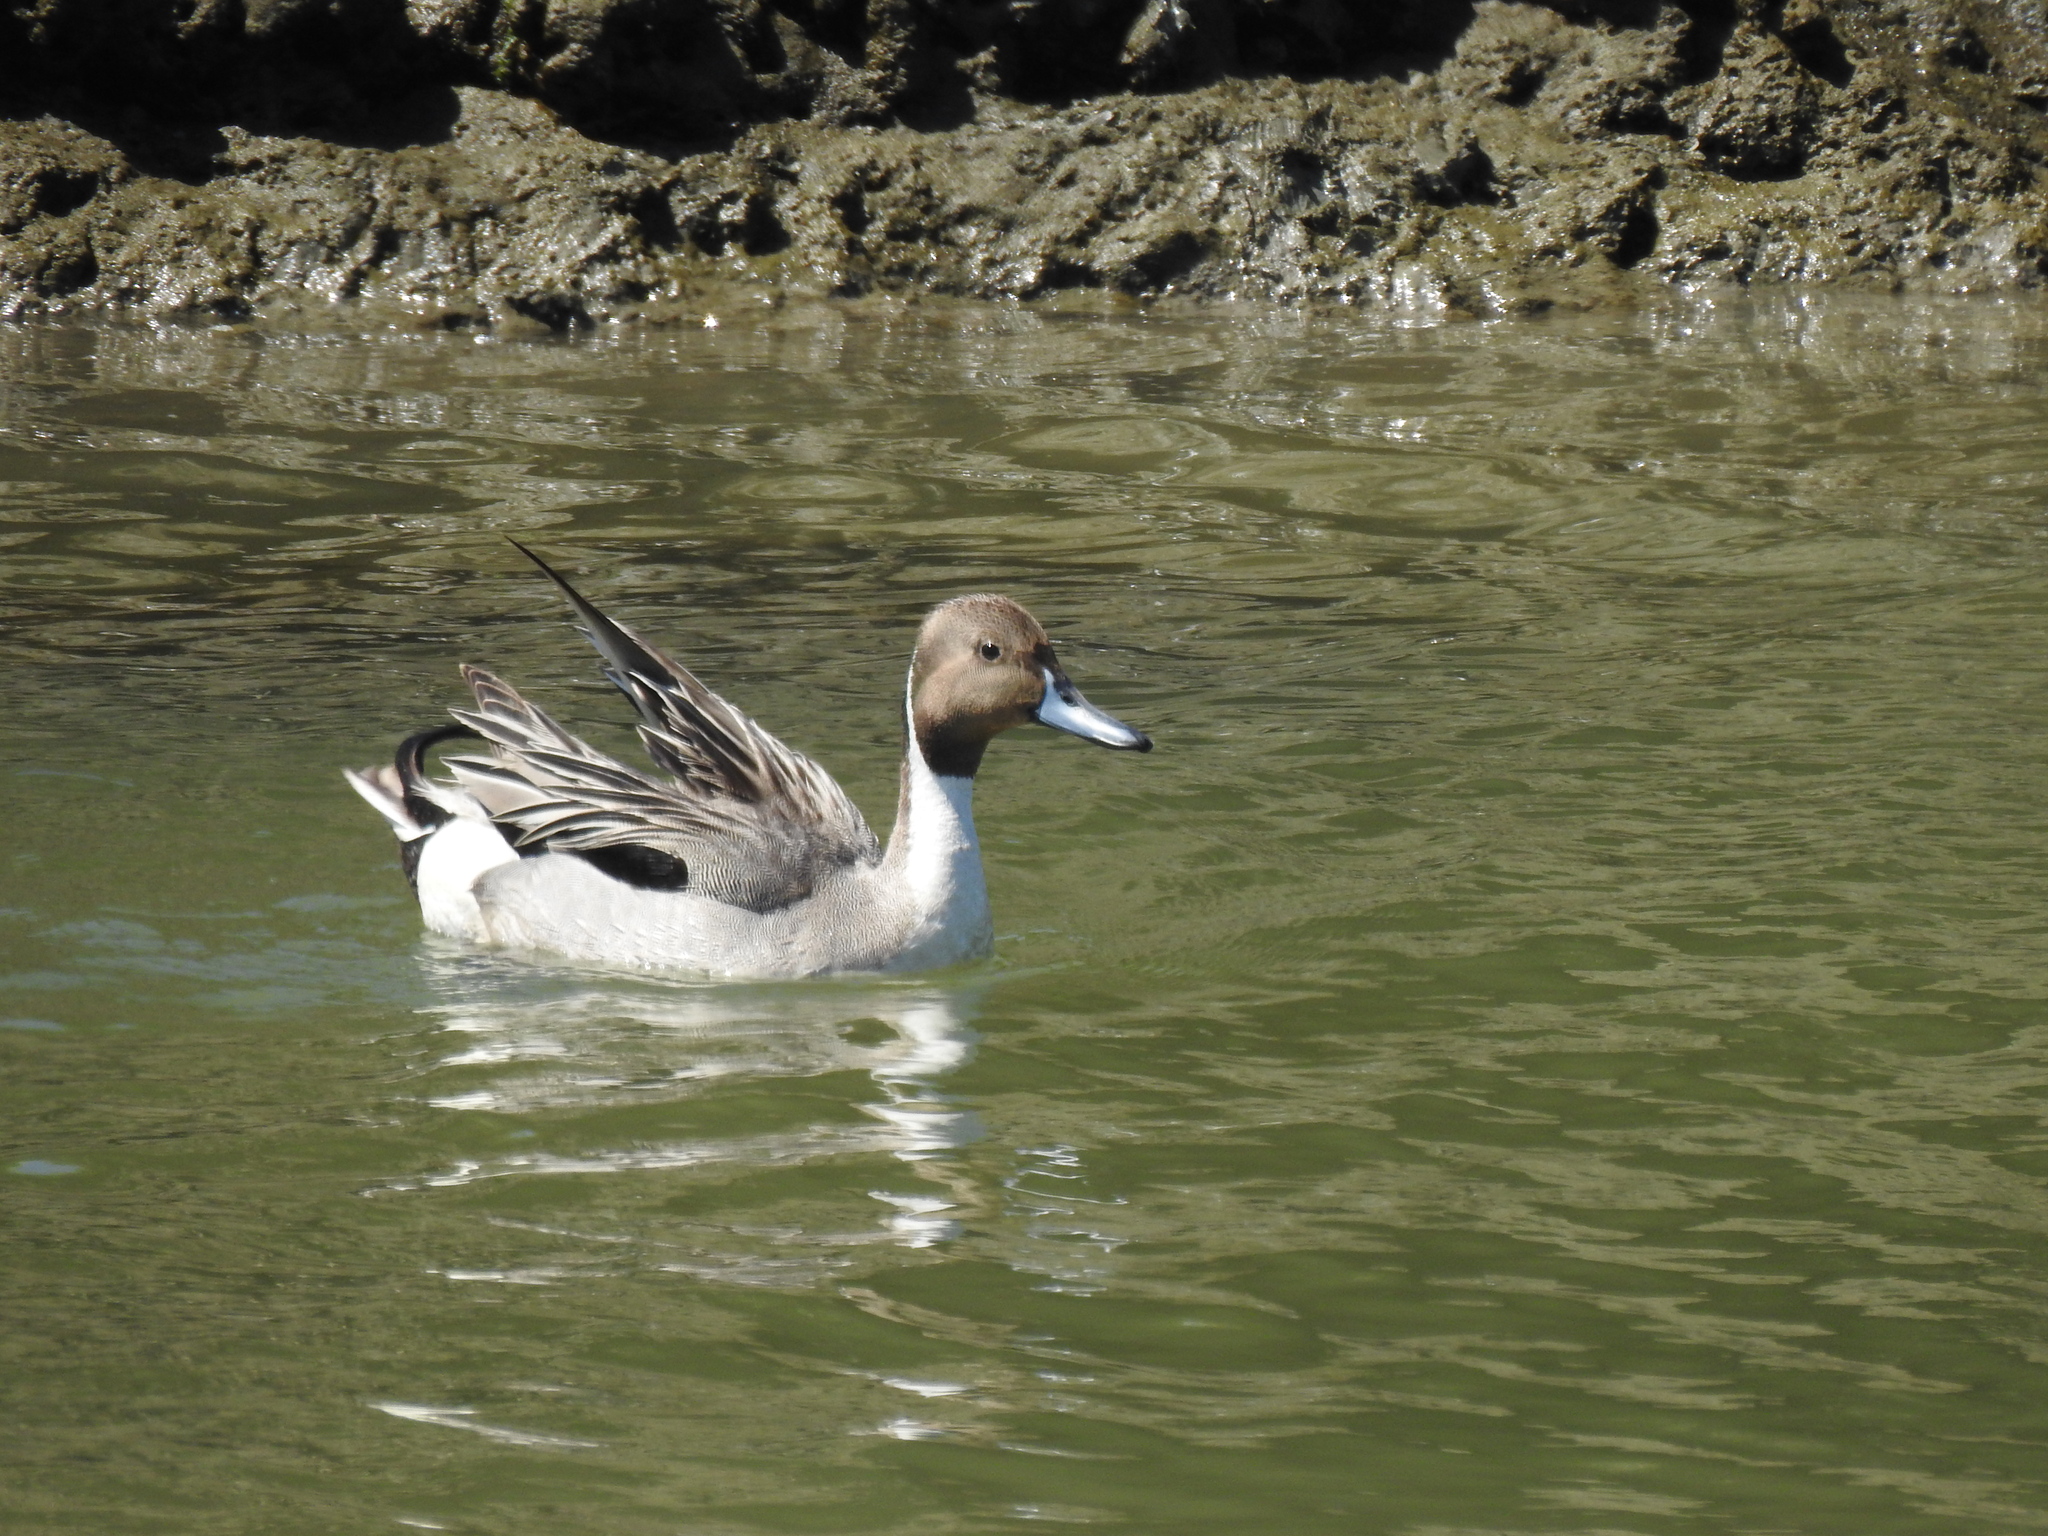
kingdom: Animalia
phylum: Chordata
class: Aves
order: Anseriformes
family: Anatidae
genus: Anas
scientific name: Anas acuta
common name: Northern pintail
